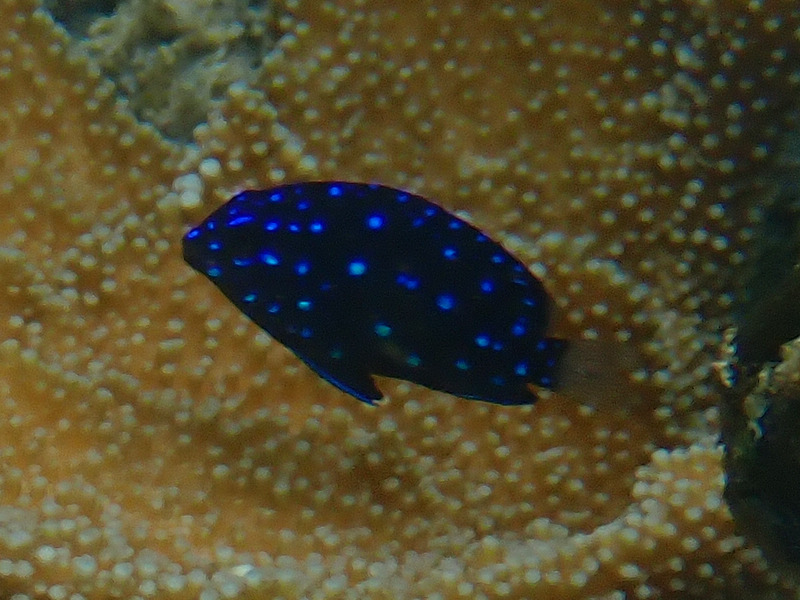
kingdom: Animalia
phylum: Chordata
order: Perciformes
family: Pomacentridae
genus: Microspathodon
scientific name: Microspathodon chrysurus
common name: Yellowtail damselfish
